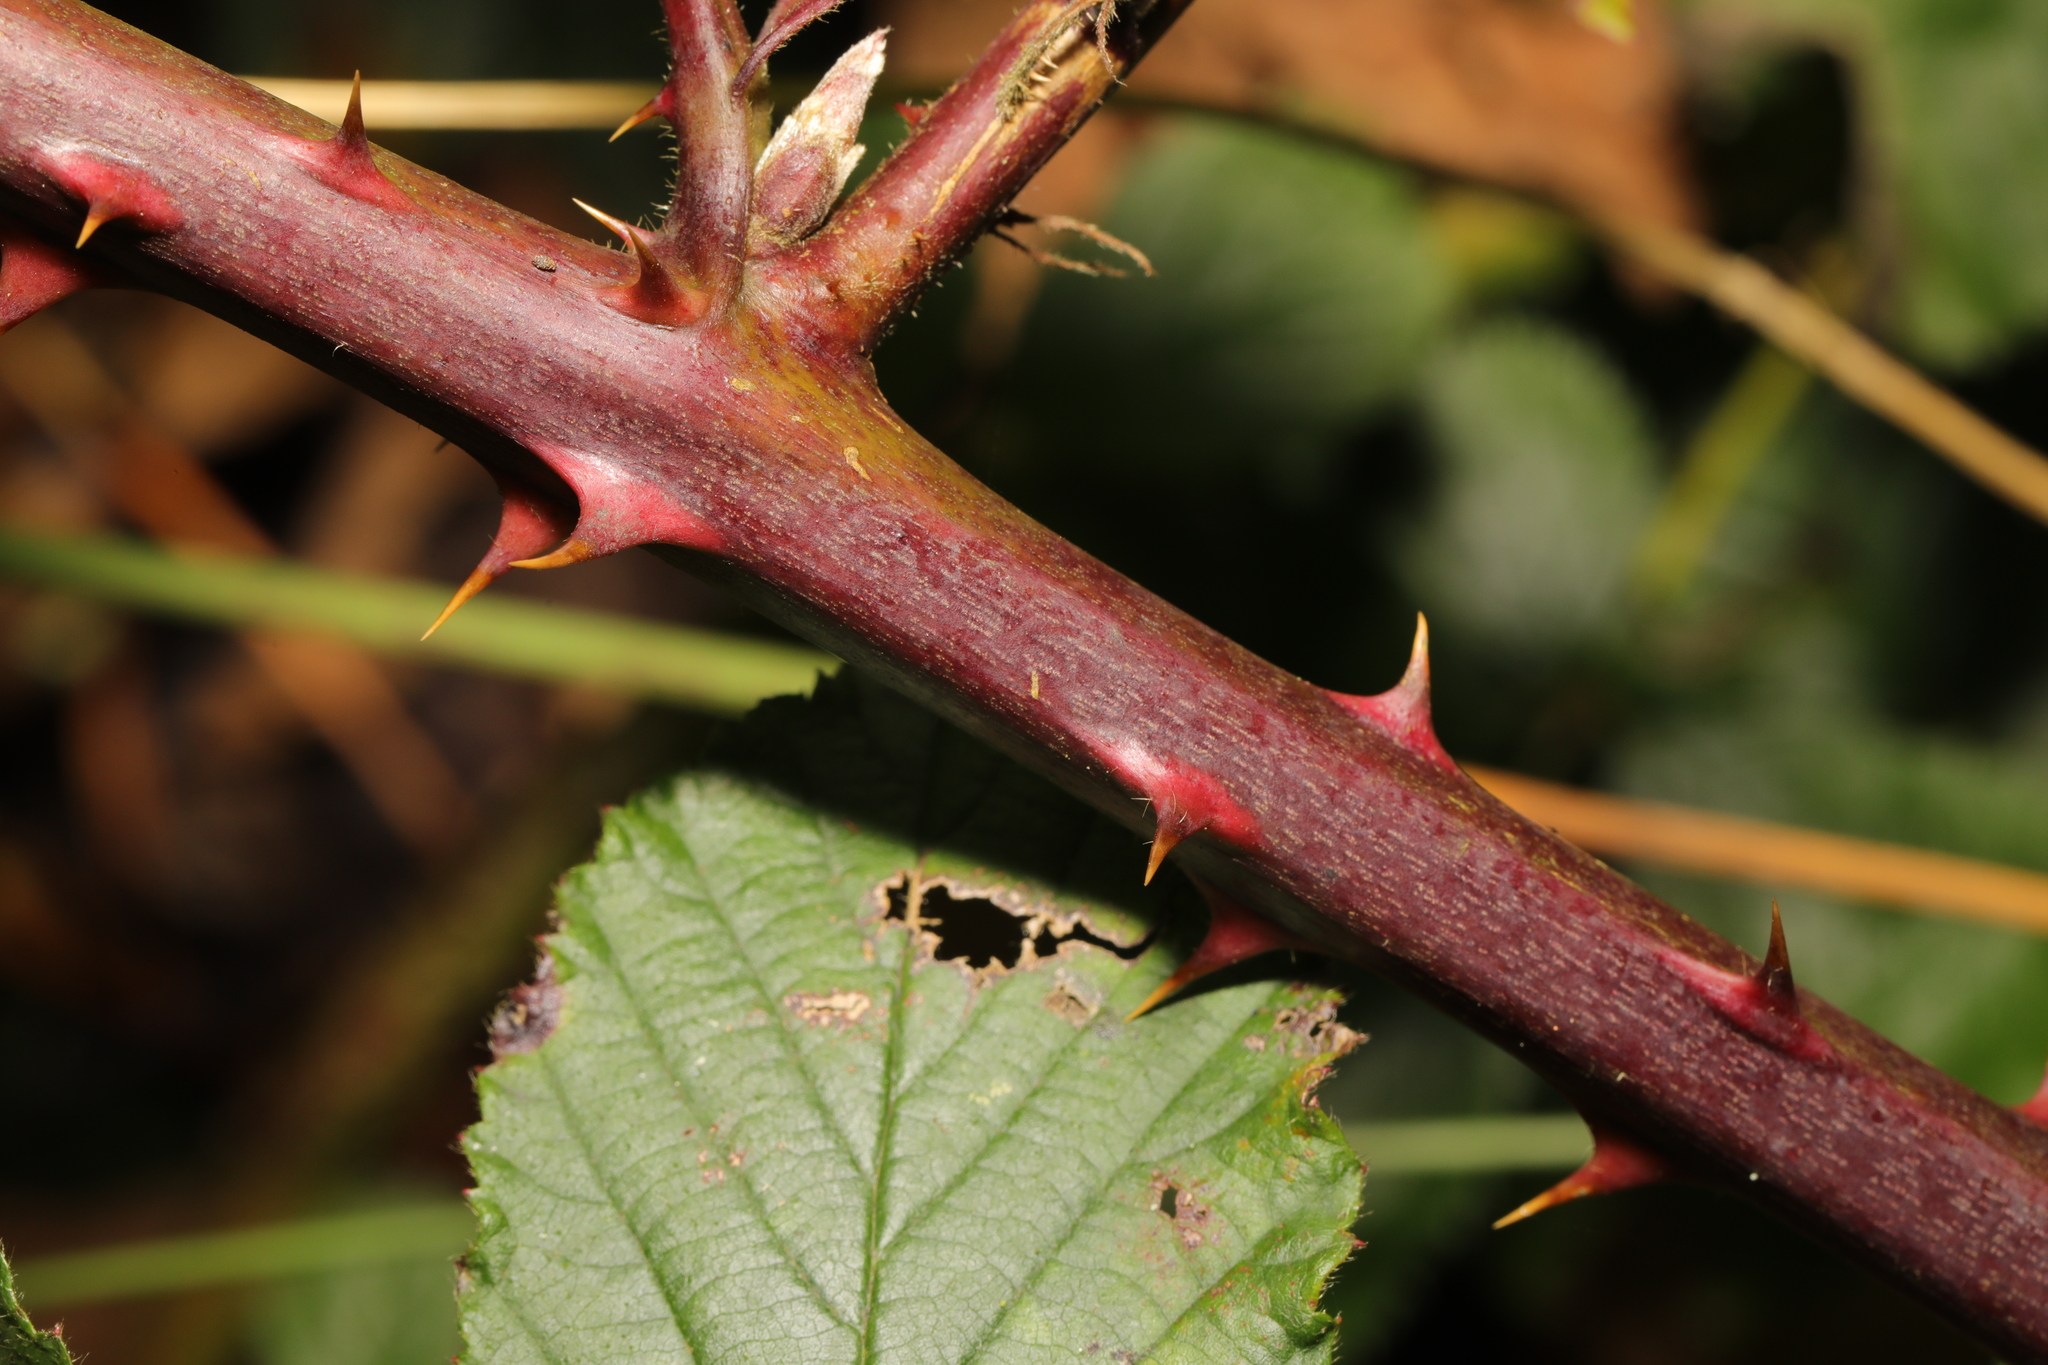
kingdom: Plantae
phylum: Tracheophyta
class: Magnoliopsida
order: Rosales
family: Rosaceae
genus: Rubus
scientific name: Rubus lindleyanus
